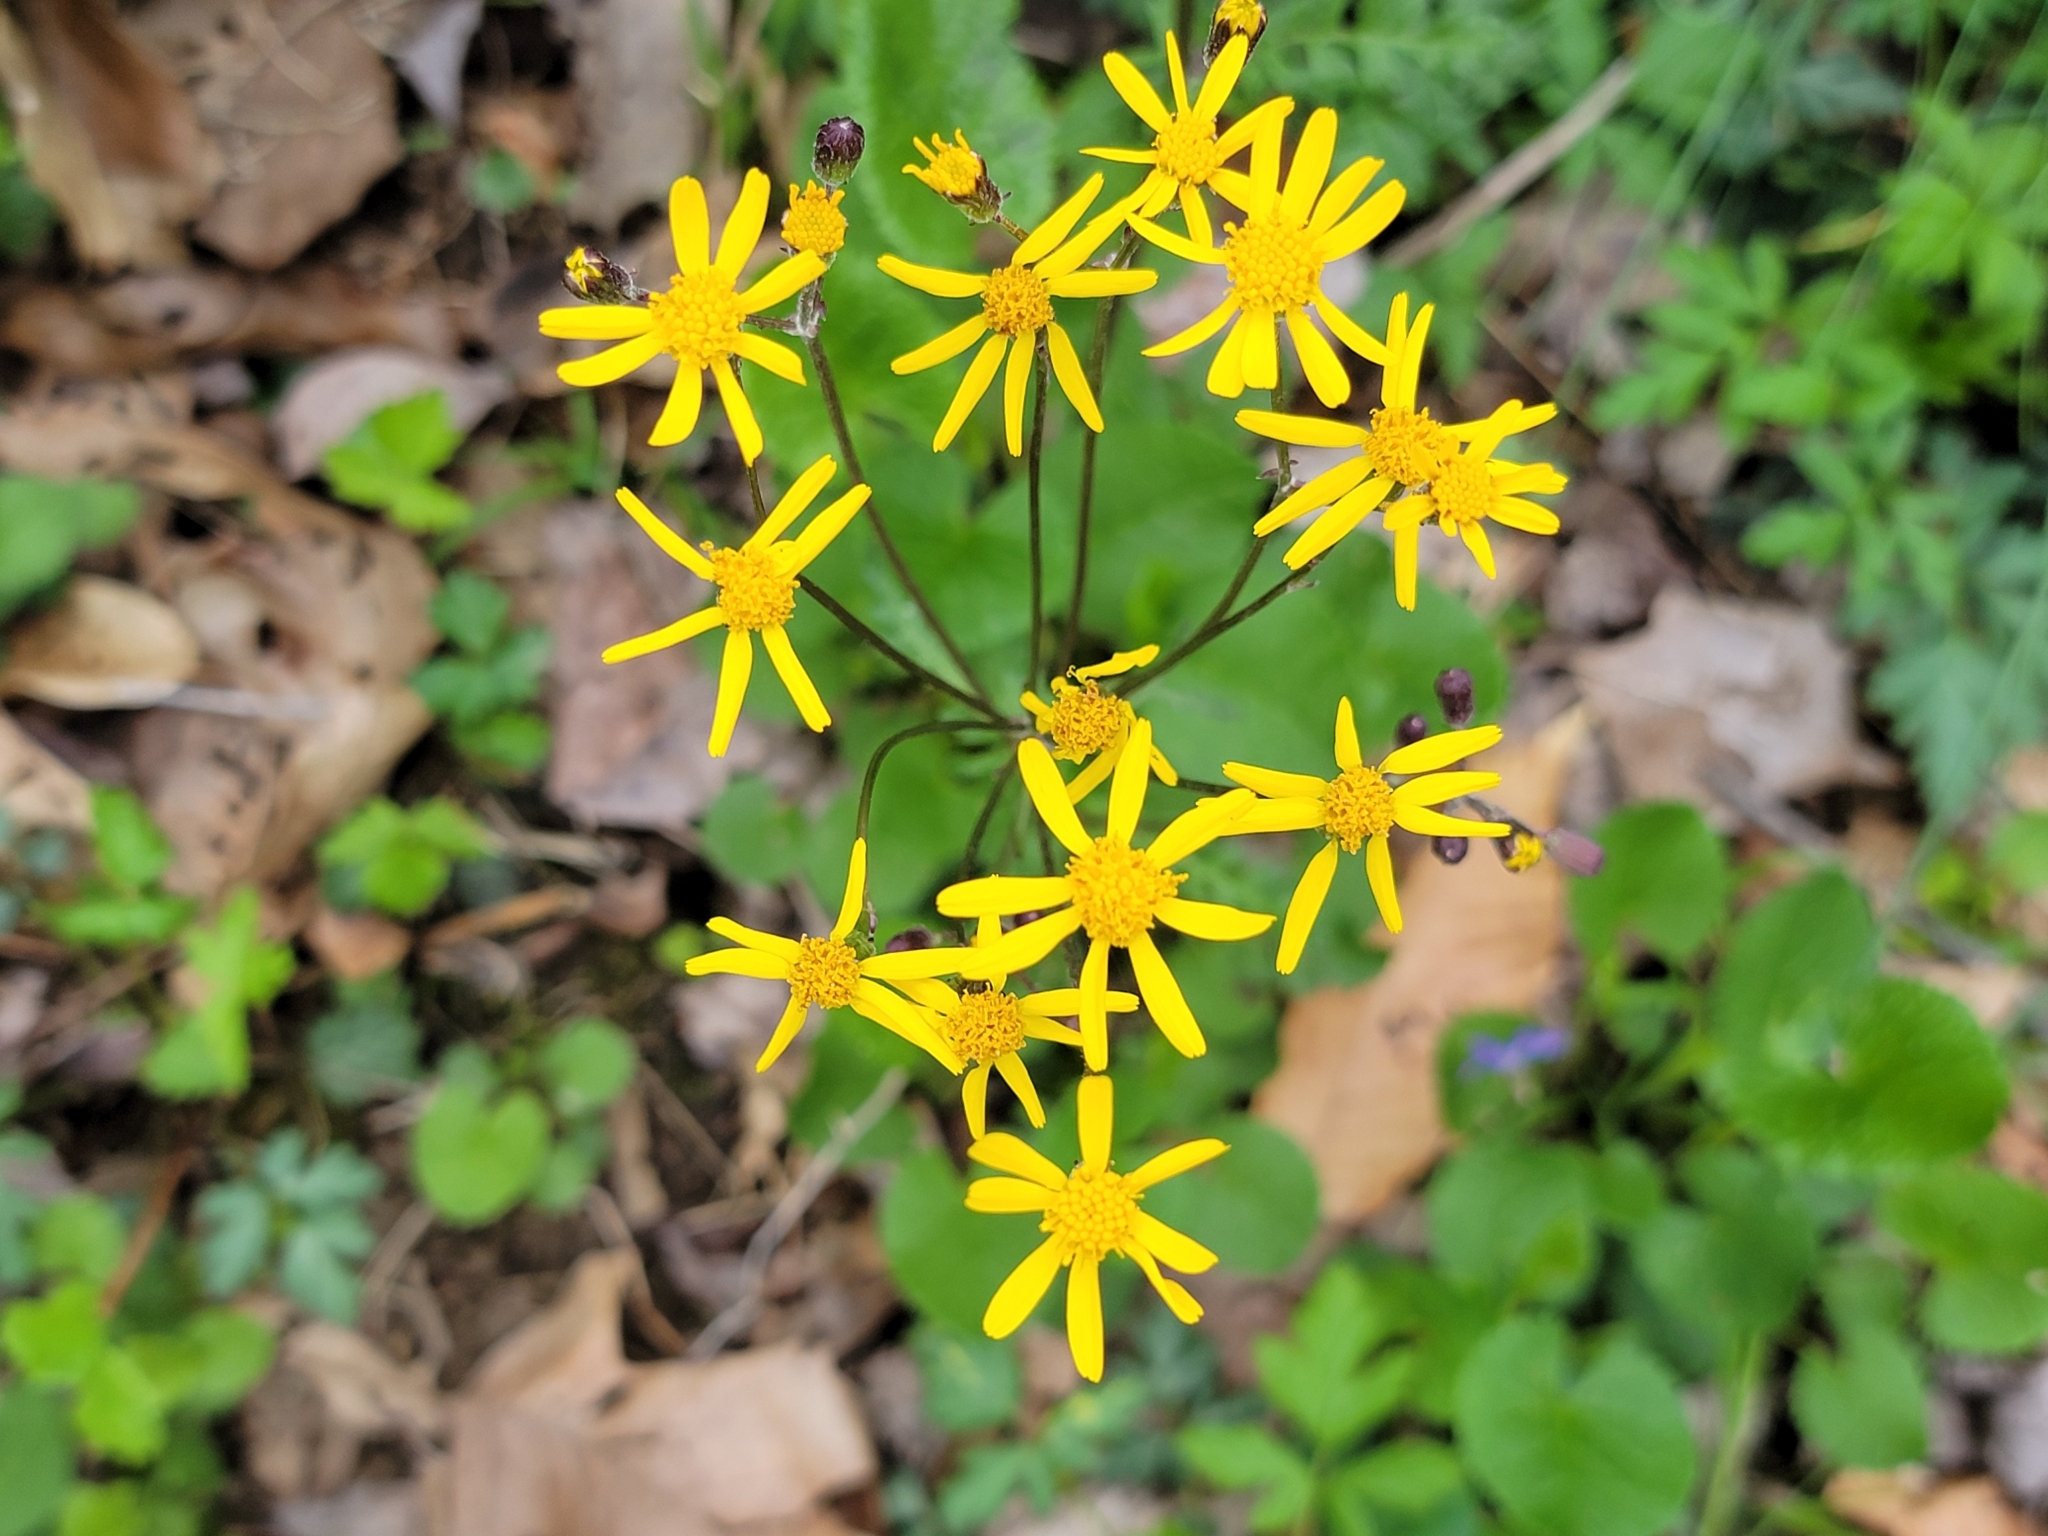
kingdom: Plantae
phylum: Tracheophyta
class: Magnoliopsida
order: Asterales
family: Asteraceae
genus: Packera
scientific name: Packera aurea
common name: Golden groundsel
